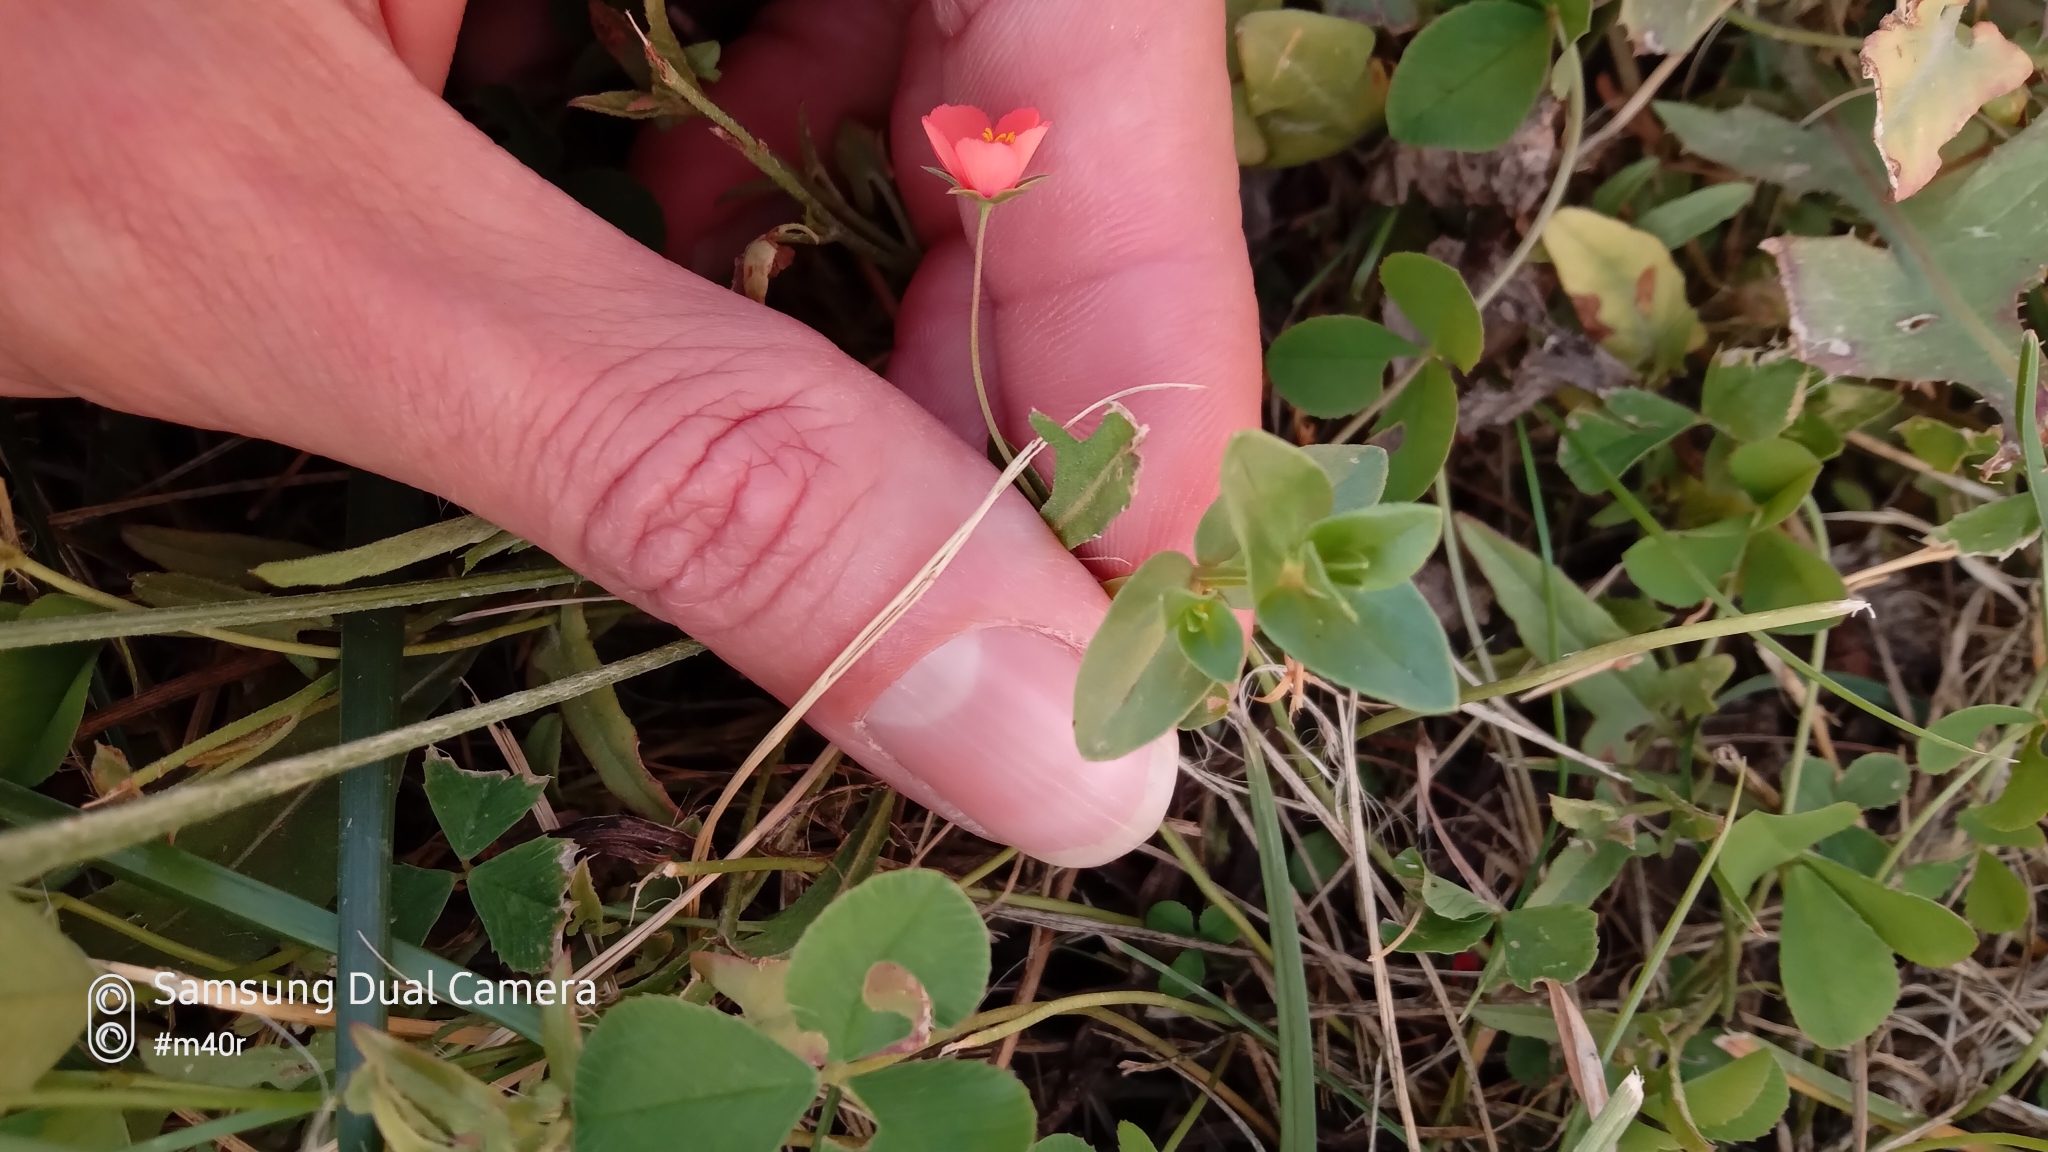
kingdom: Plantae
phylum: Tracheophyta
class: Magnoliopsida
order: Ericales
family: Primulaceae
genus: Lysimachia
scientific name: Lysimachia arvensis
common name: Scarlet pimpernel
